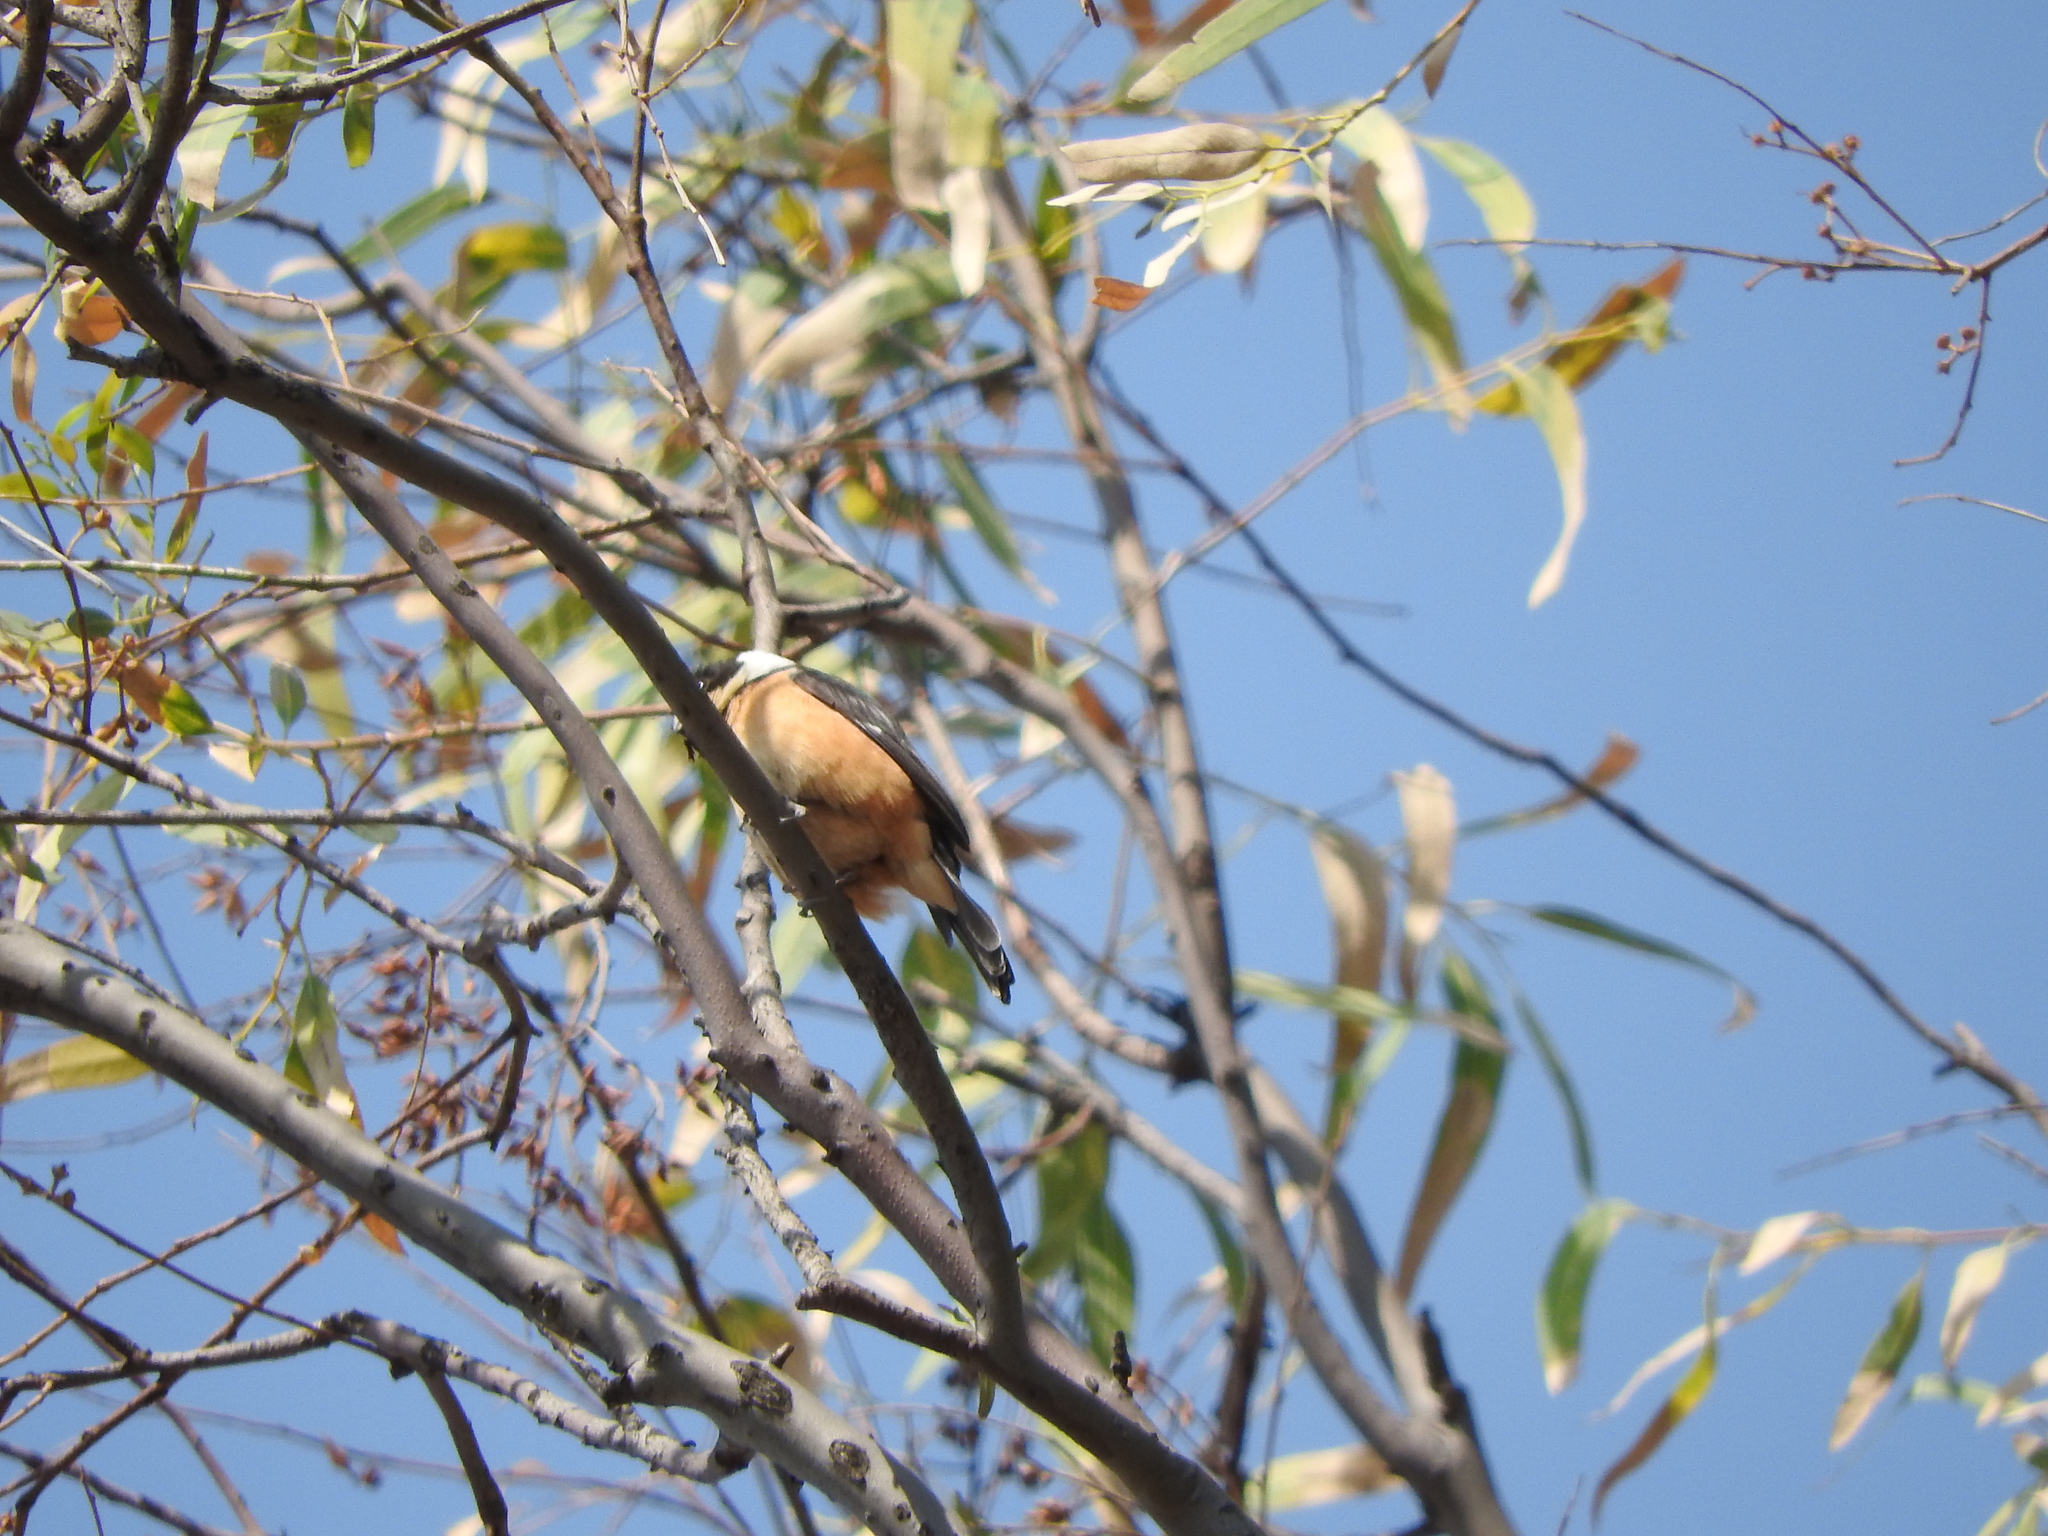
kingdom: Animalia
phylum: Chordata
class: Aves
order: Passeriformes
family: Thraupidae
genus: Sporophila
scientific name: Sporophila torqueola
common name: White-collared seedeater
